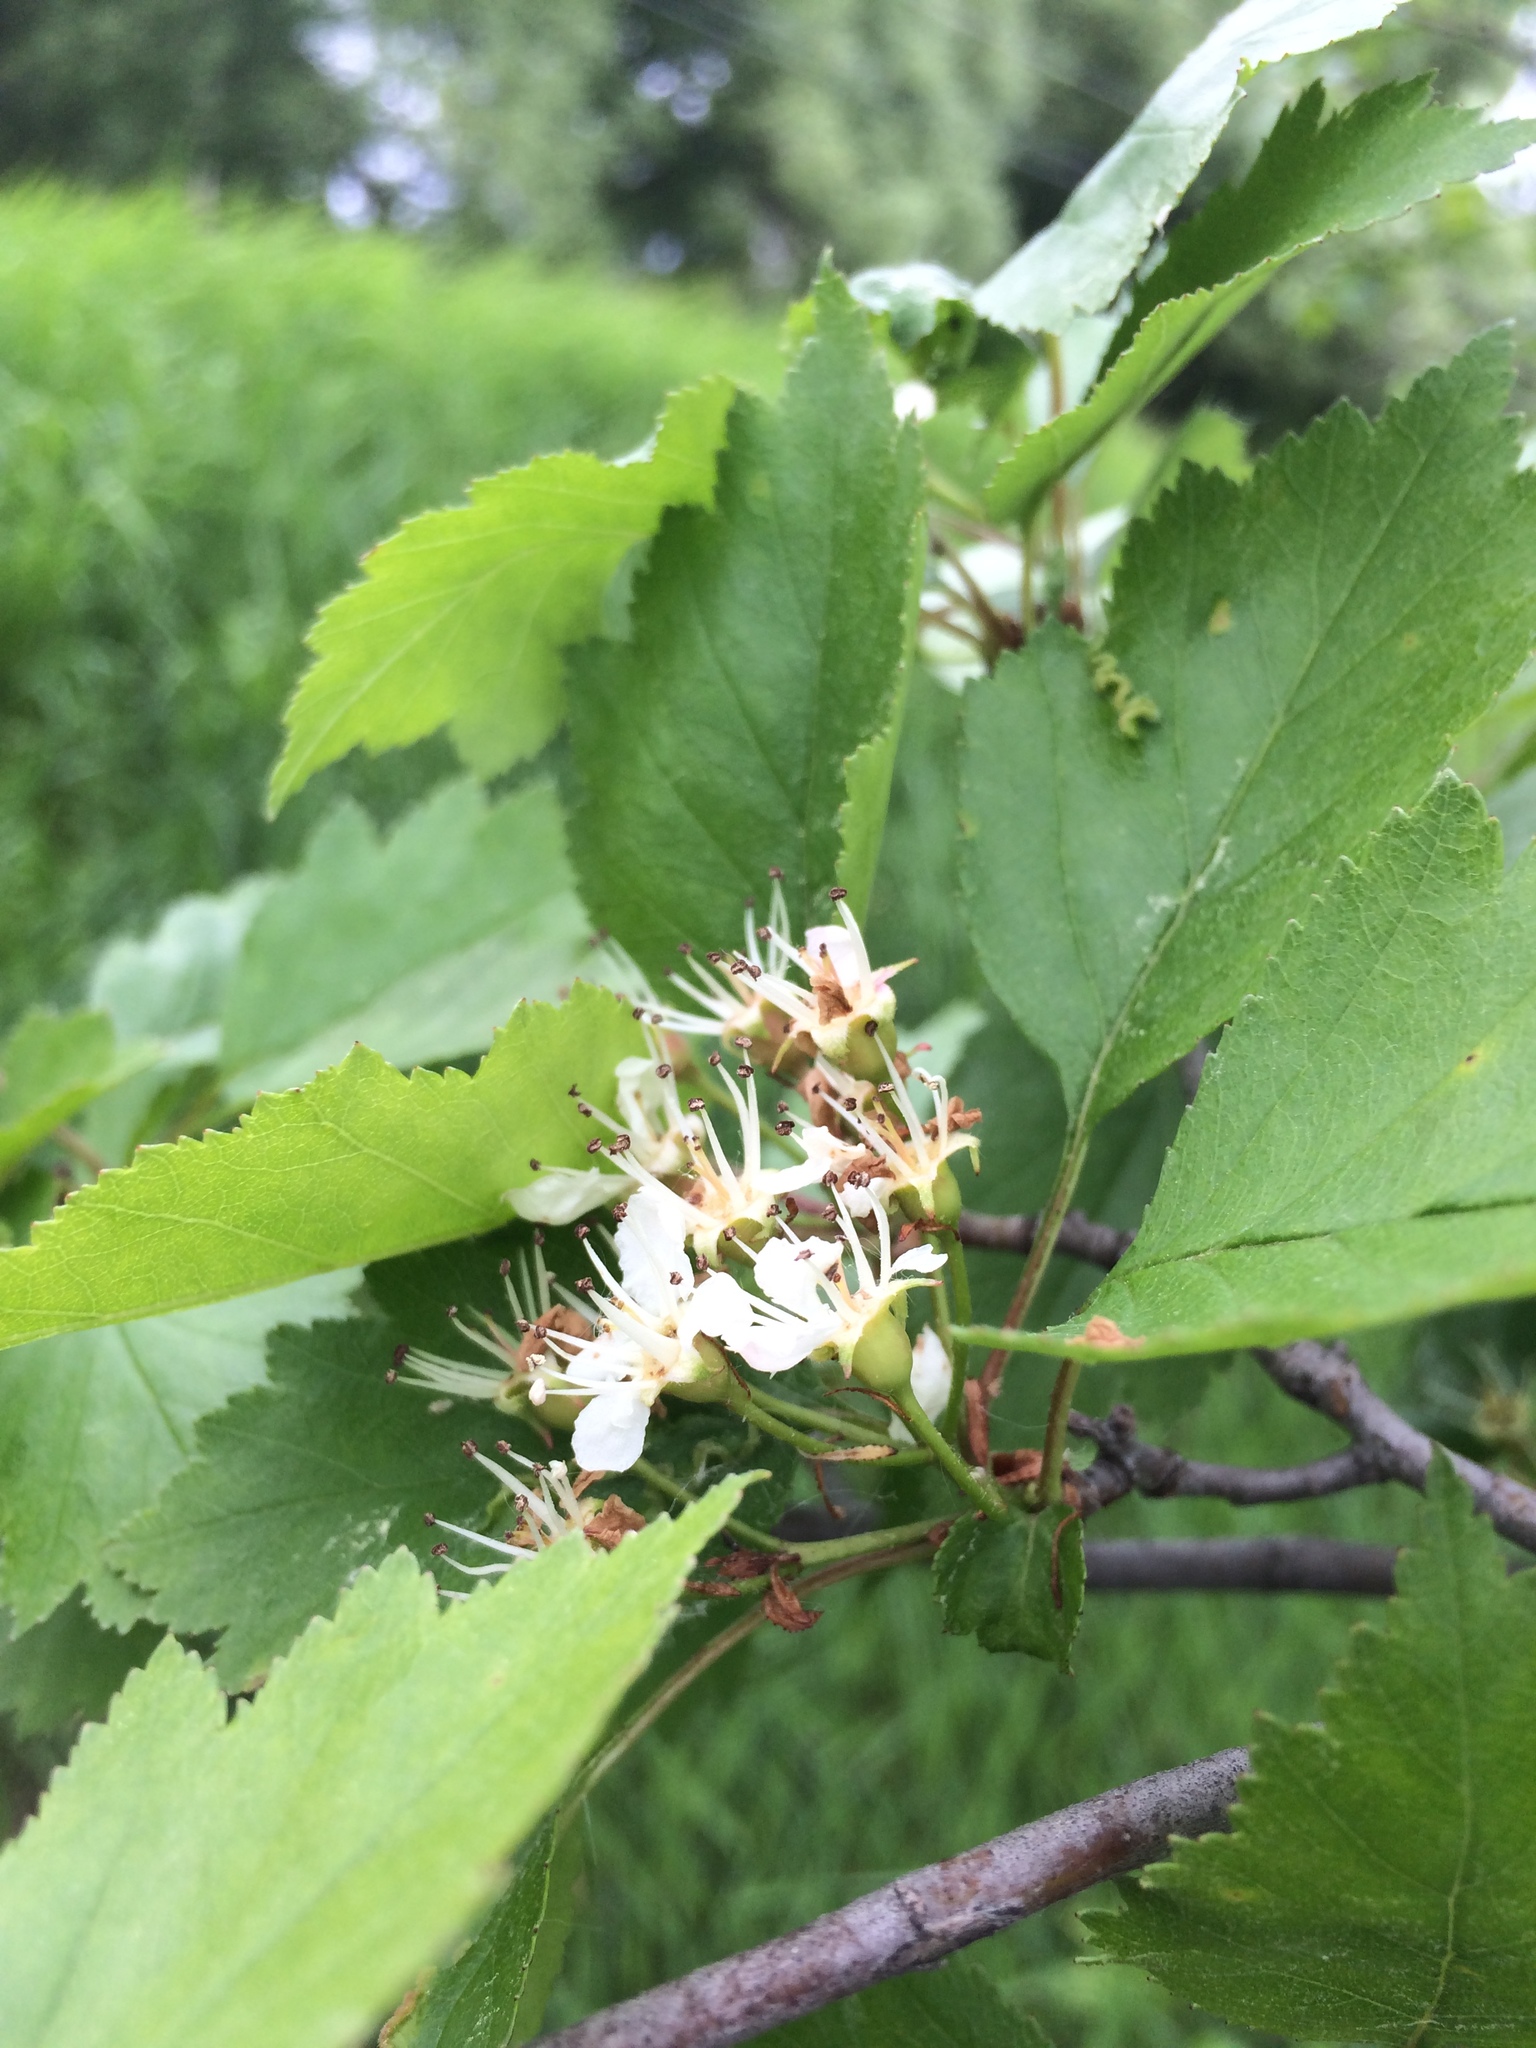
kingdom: Plantae
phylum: Tracheophyta
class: Magnoliopsida
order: Rosales
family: Rosaceae
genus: Crataegus
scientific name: Crataegus fluviatilis
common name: Fort sheridan hawthorn
